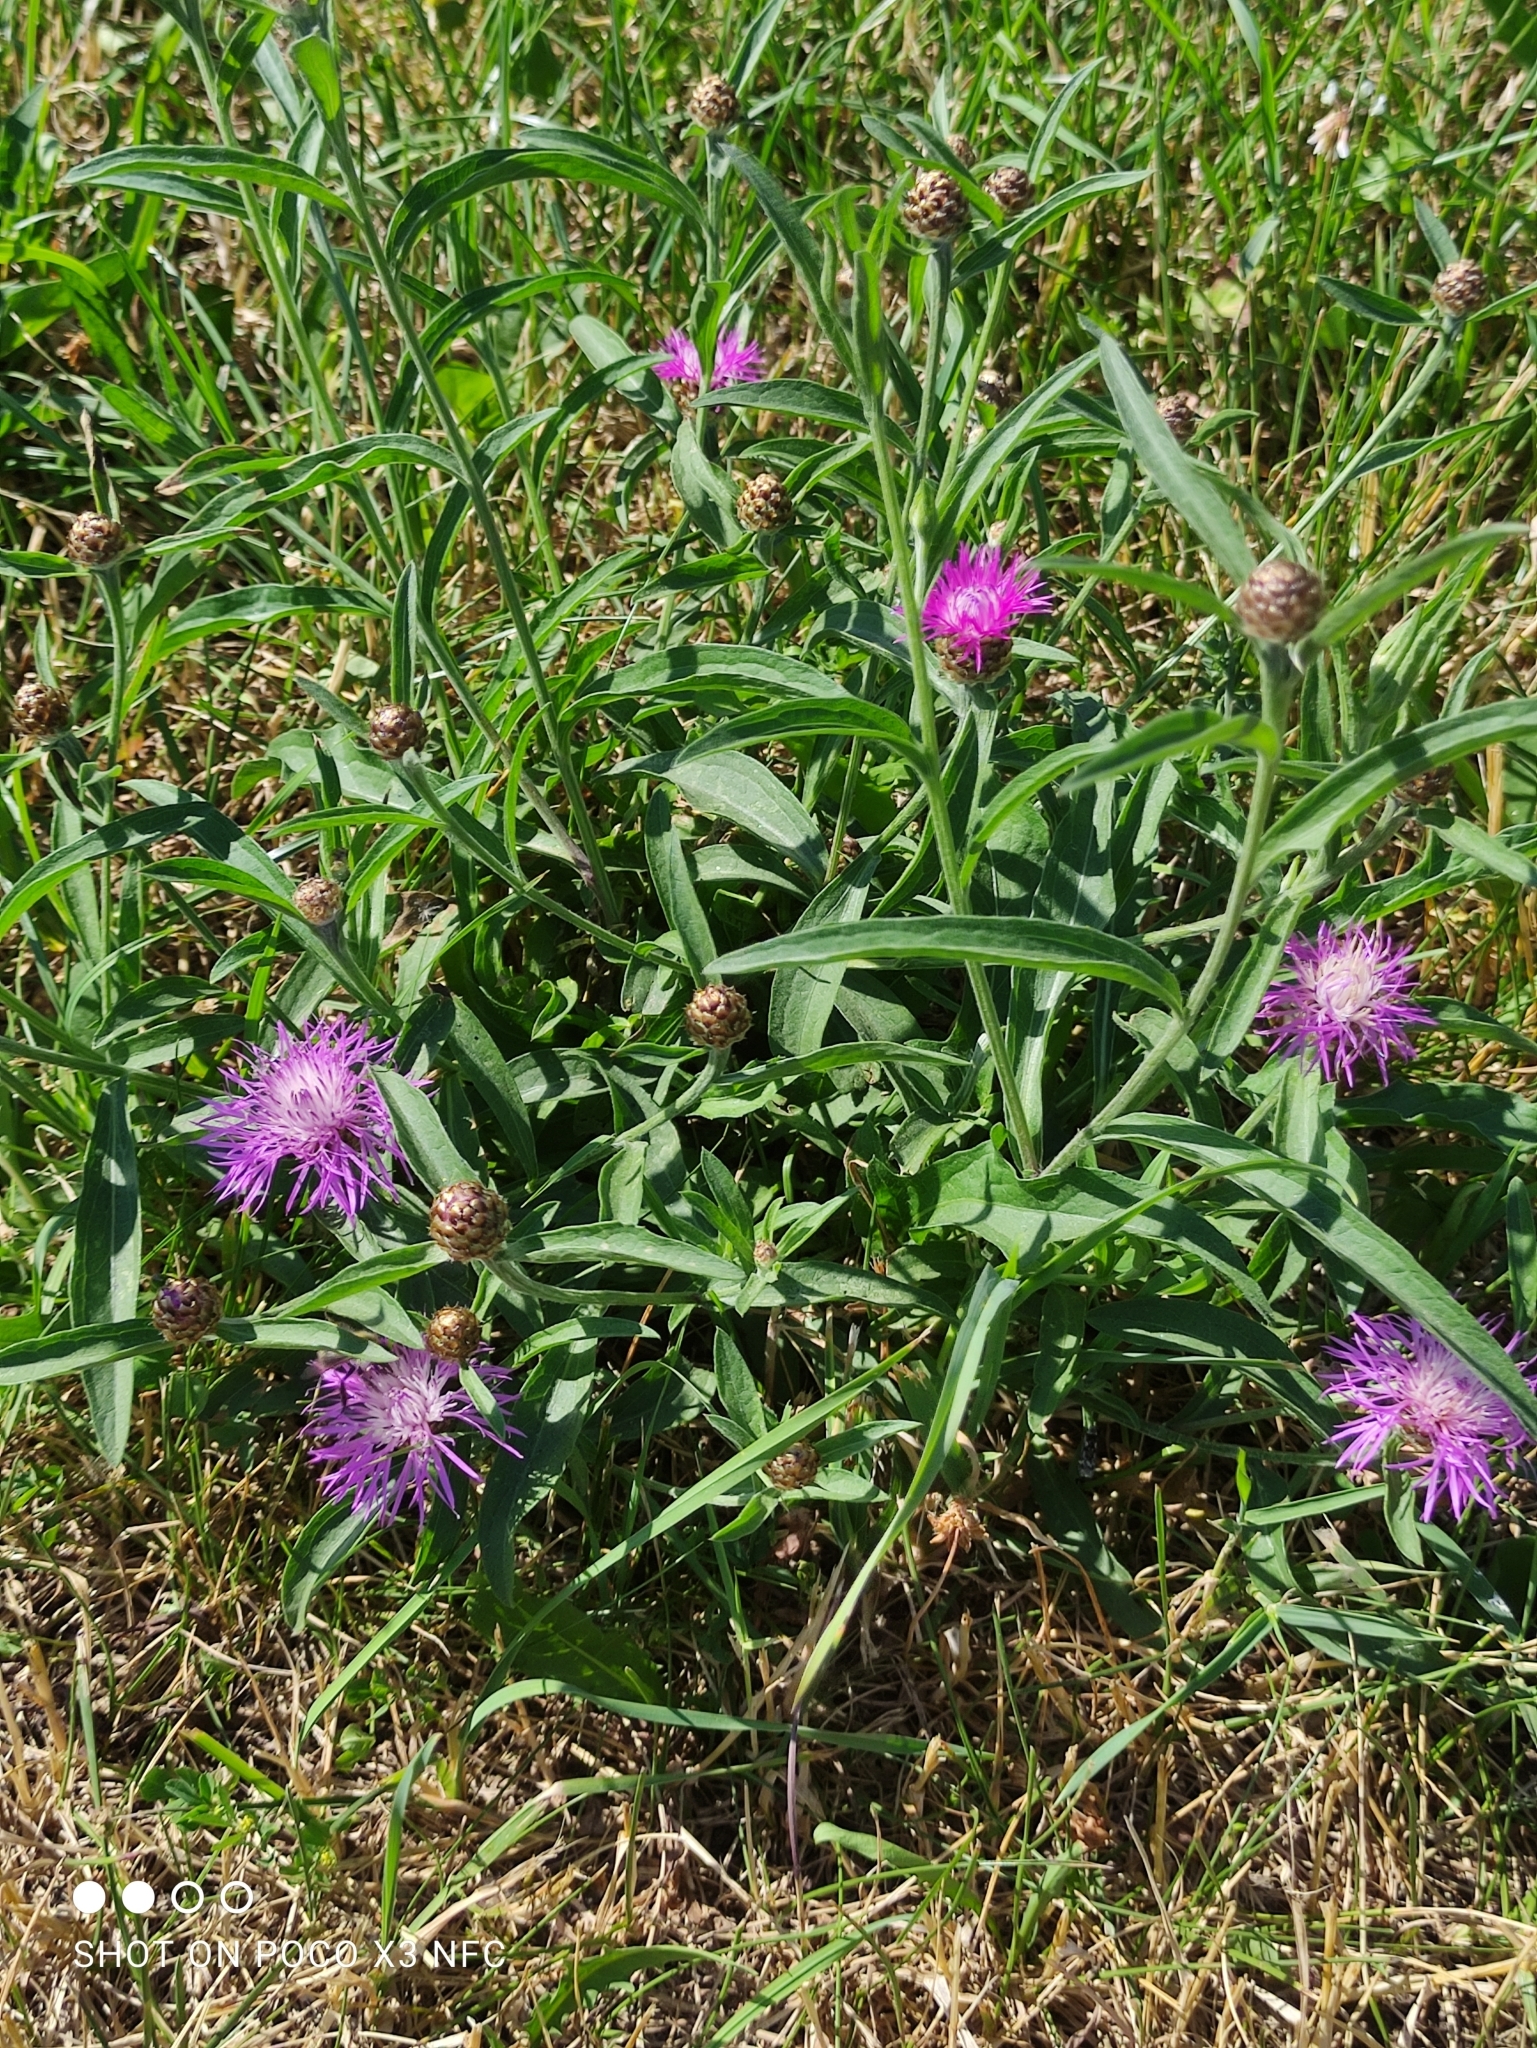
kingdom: Plantae
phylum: Tracheophyta
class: Magnoliopsida
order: Asterales
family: Asteraceae
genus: Centaurea
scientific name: Centaurea jacea
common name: Brown knapweed
